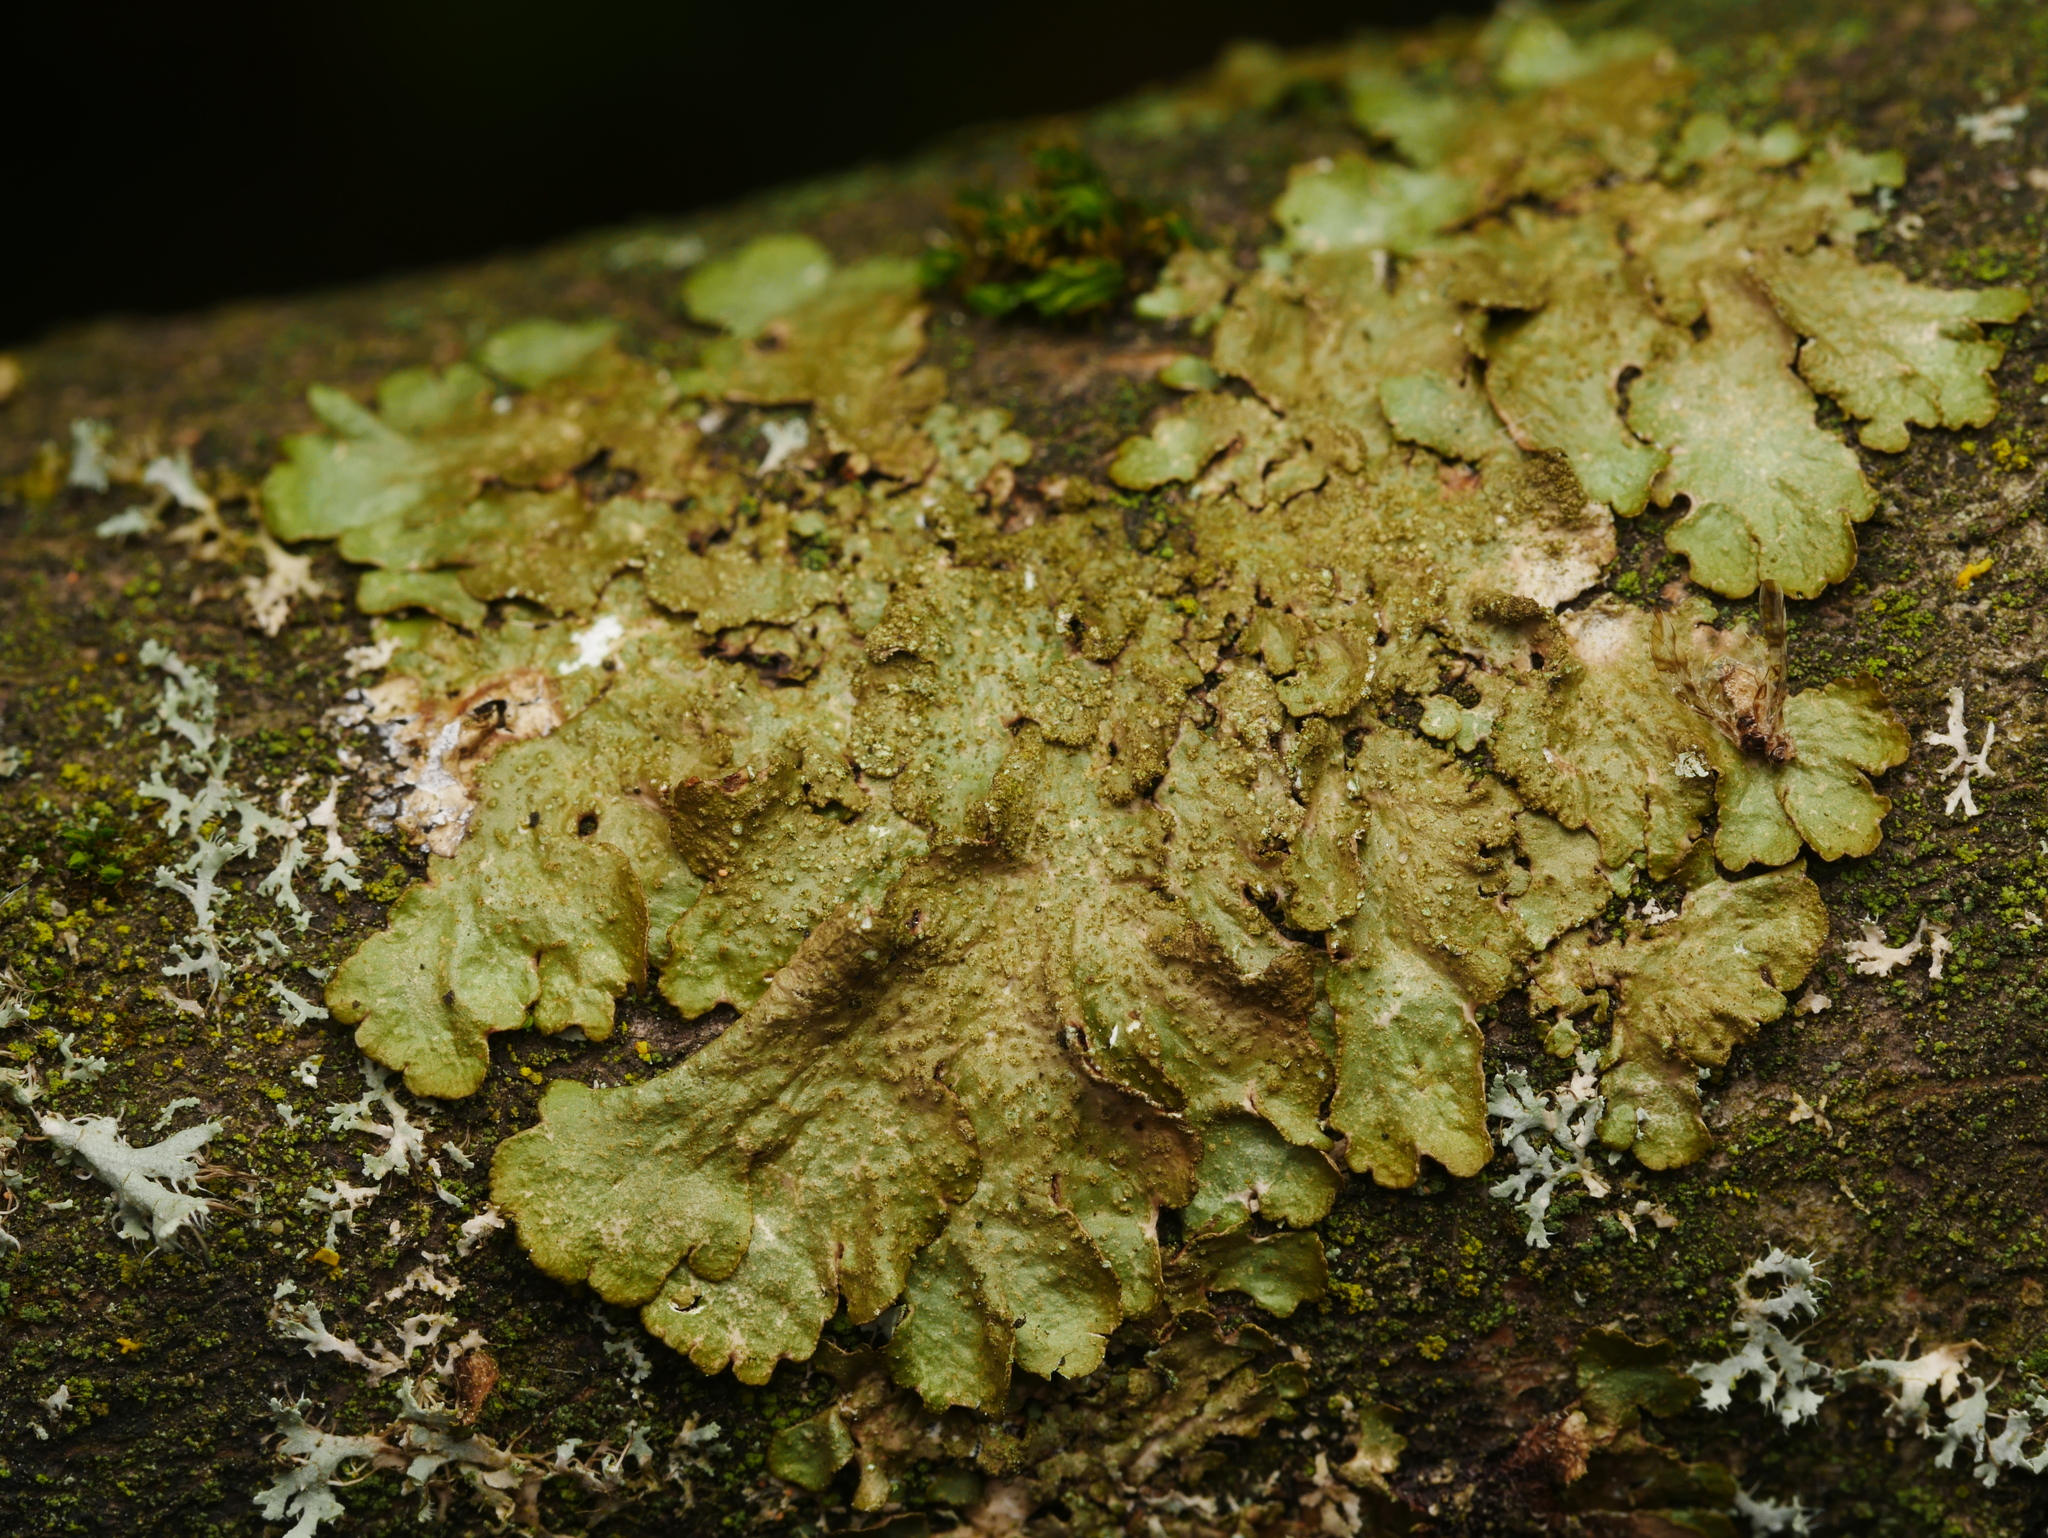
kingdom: Fungi
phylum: Ascomycota
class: Lecanoromycetes
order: Lecanorales
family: Parmeliaceae
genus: Melanelixia
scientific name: Melanelixia subaurifera
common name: Abraded camouflage lichen
